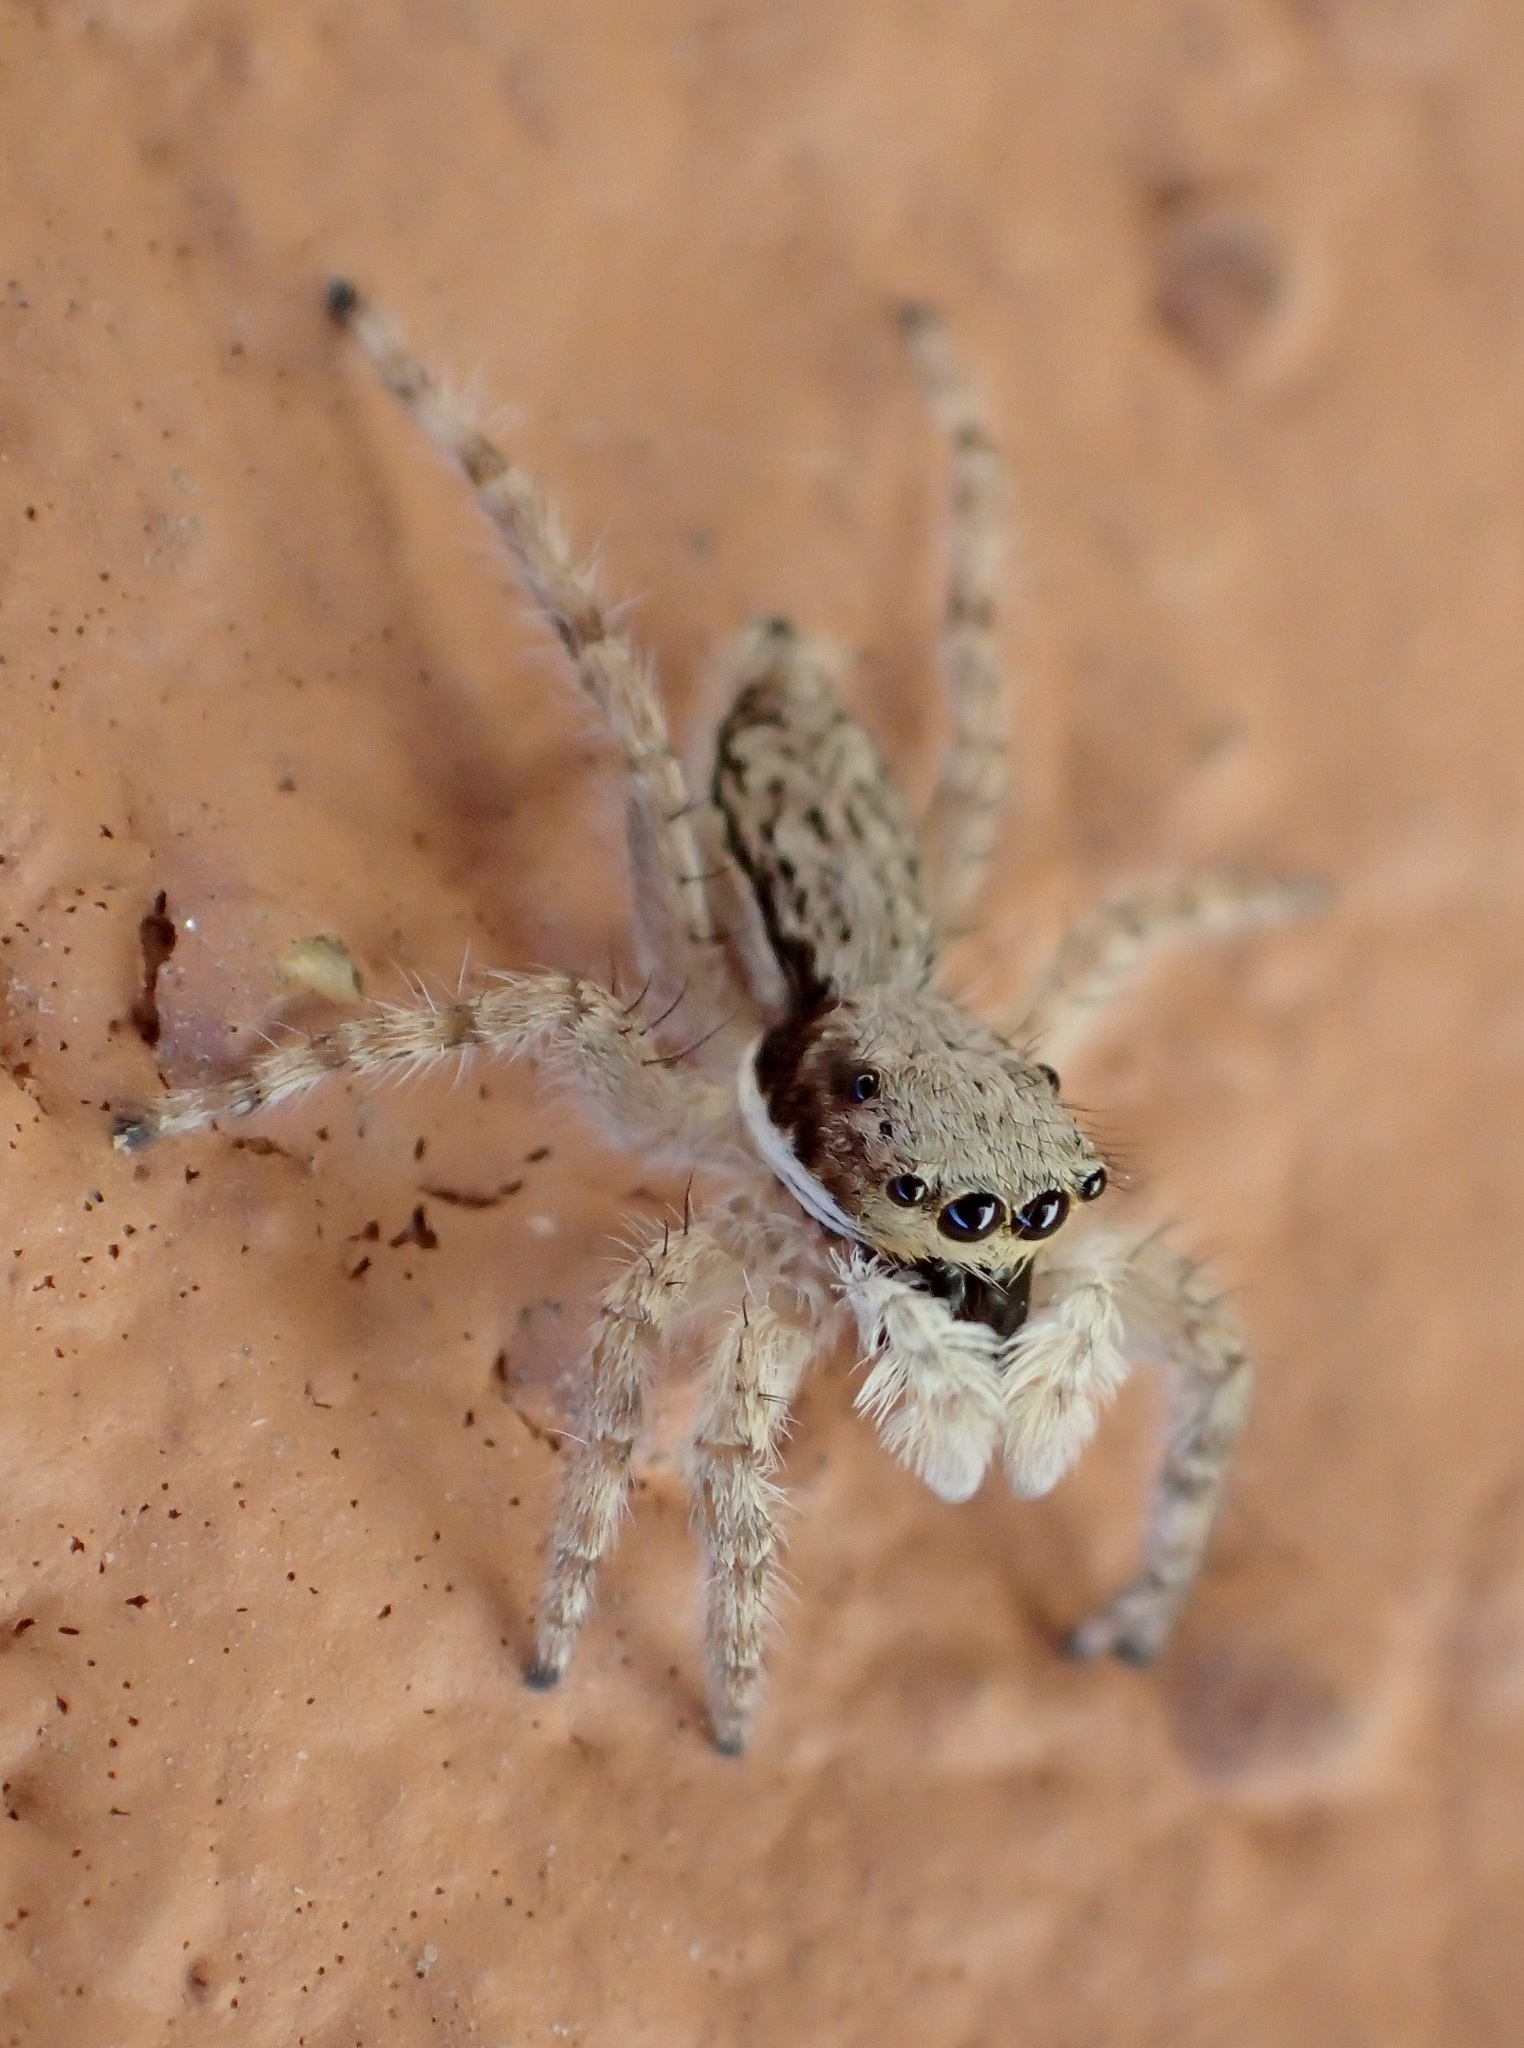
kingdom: Animalia
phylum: Arthropoda
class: Arachnida
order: Araneae
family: Salticidae
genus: Menemerus
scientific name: Menemerus bivittatus
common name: Gray wall jumper
